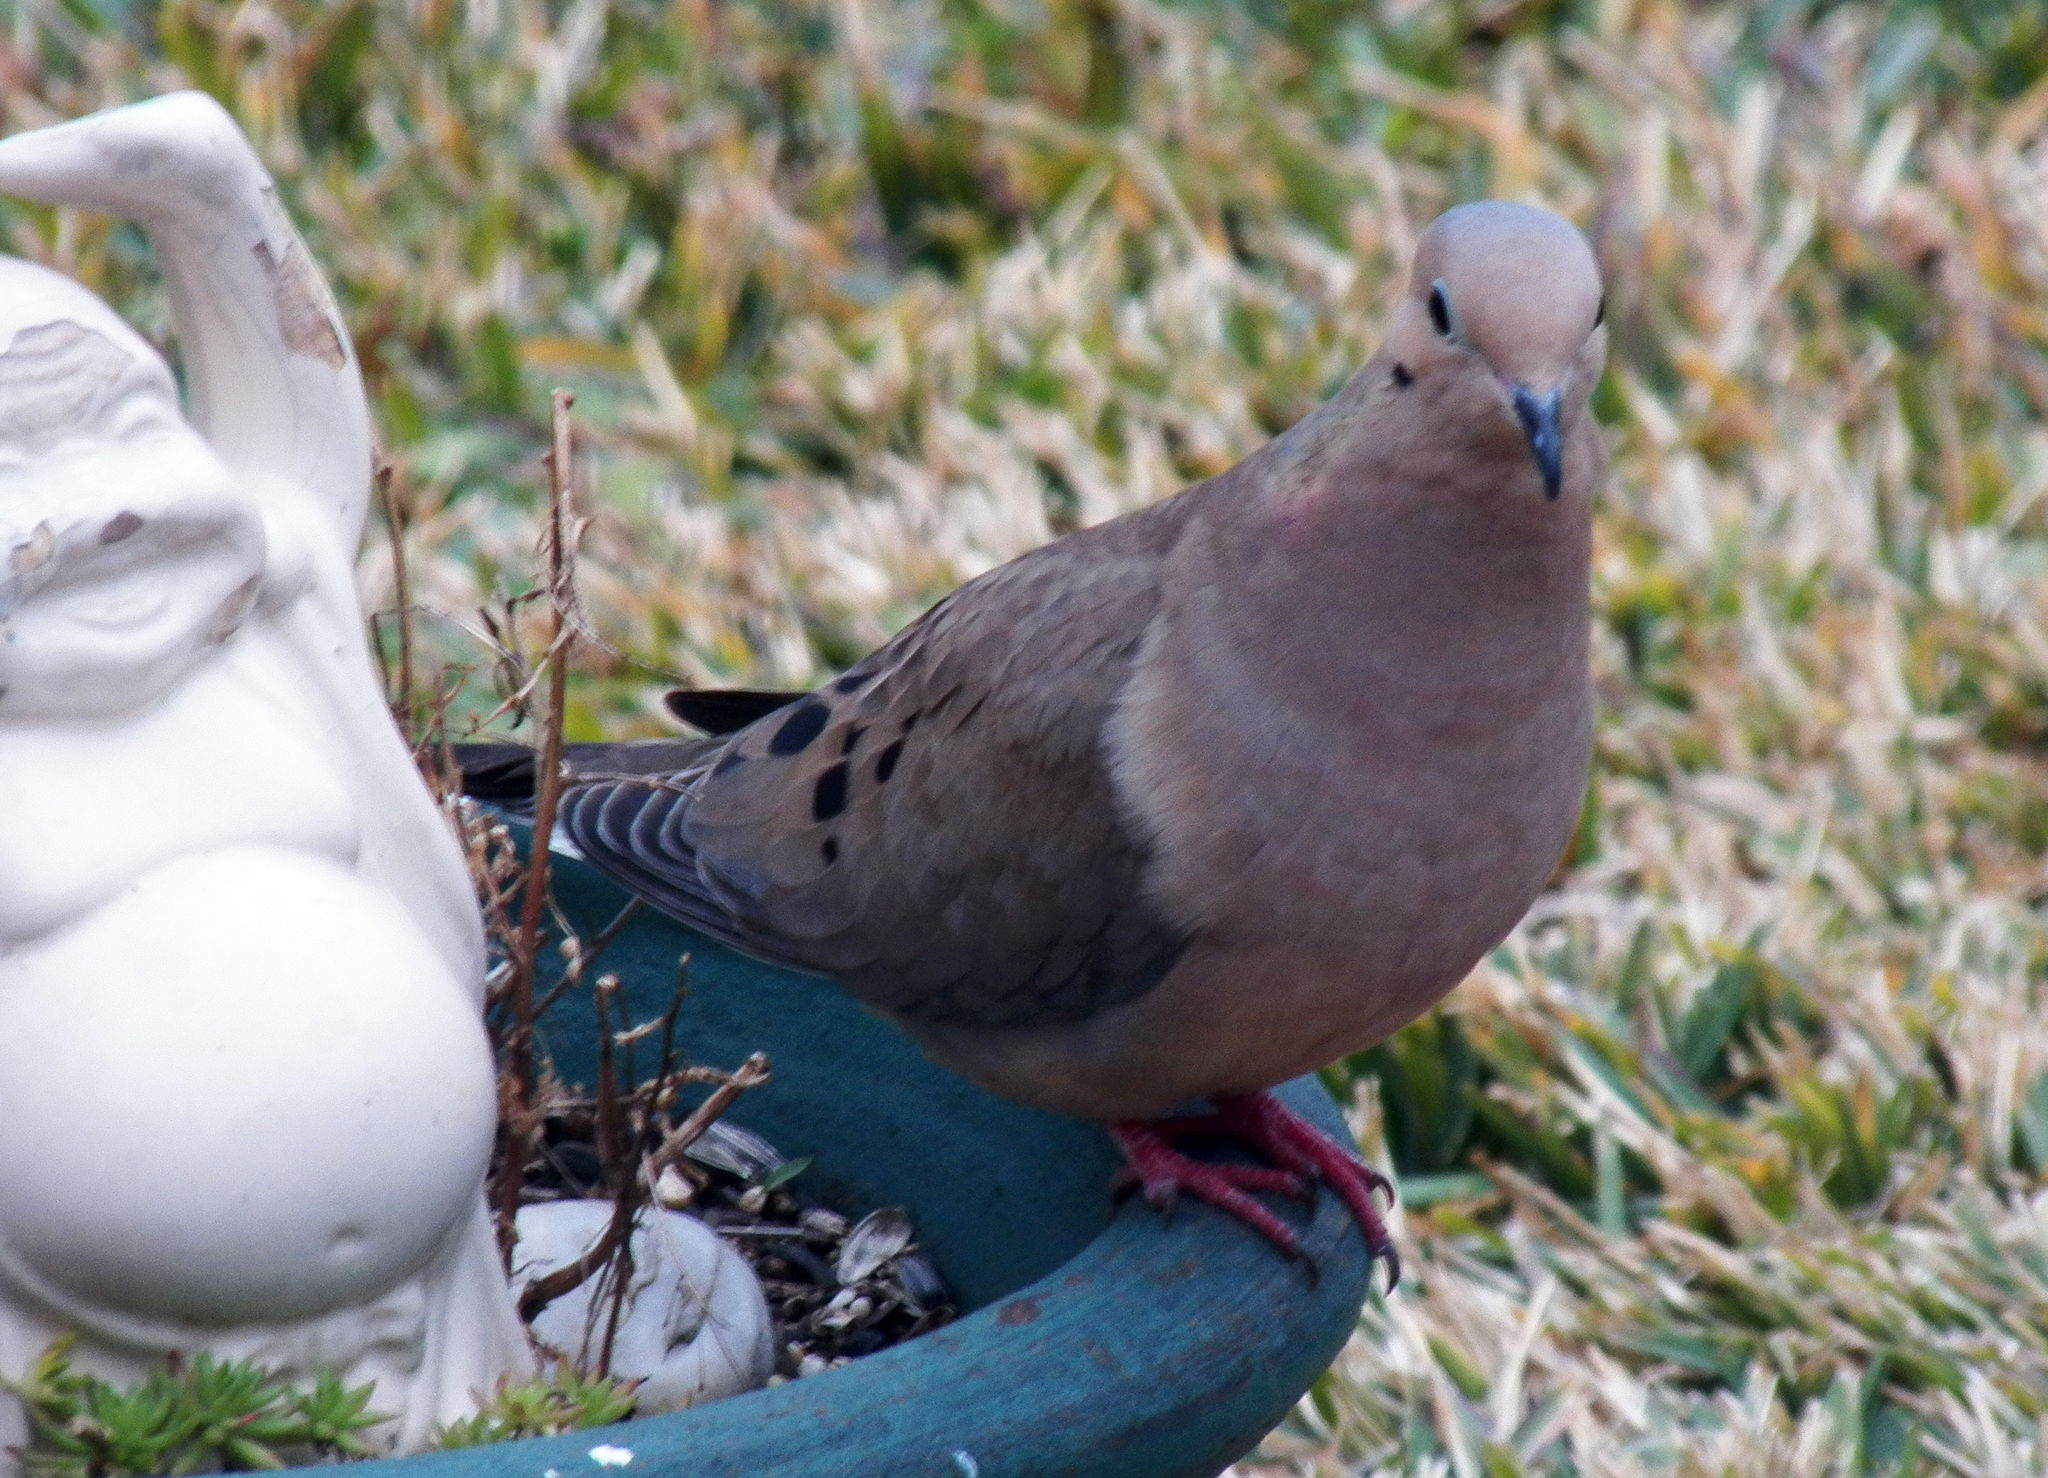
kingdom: Animalia
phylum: Chordata
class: Aves
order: Columbiformes
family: Columbidae
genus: Zenaida
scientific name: Zenaida macroura
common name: Mourning dove
